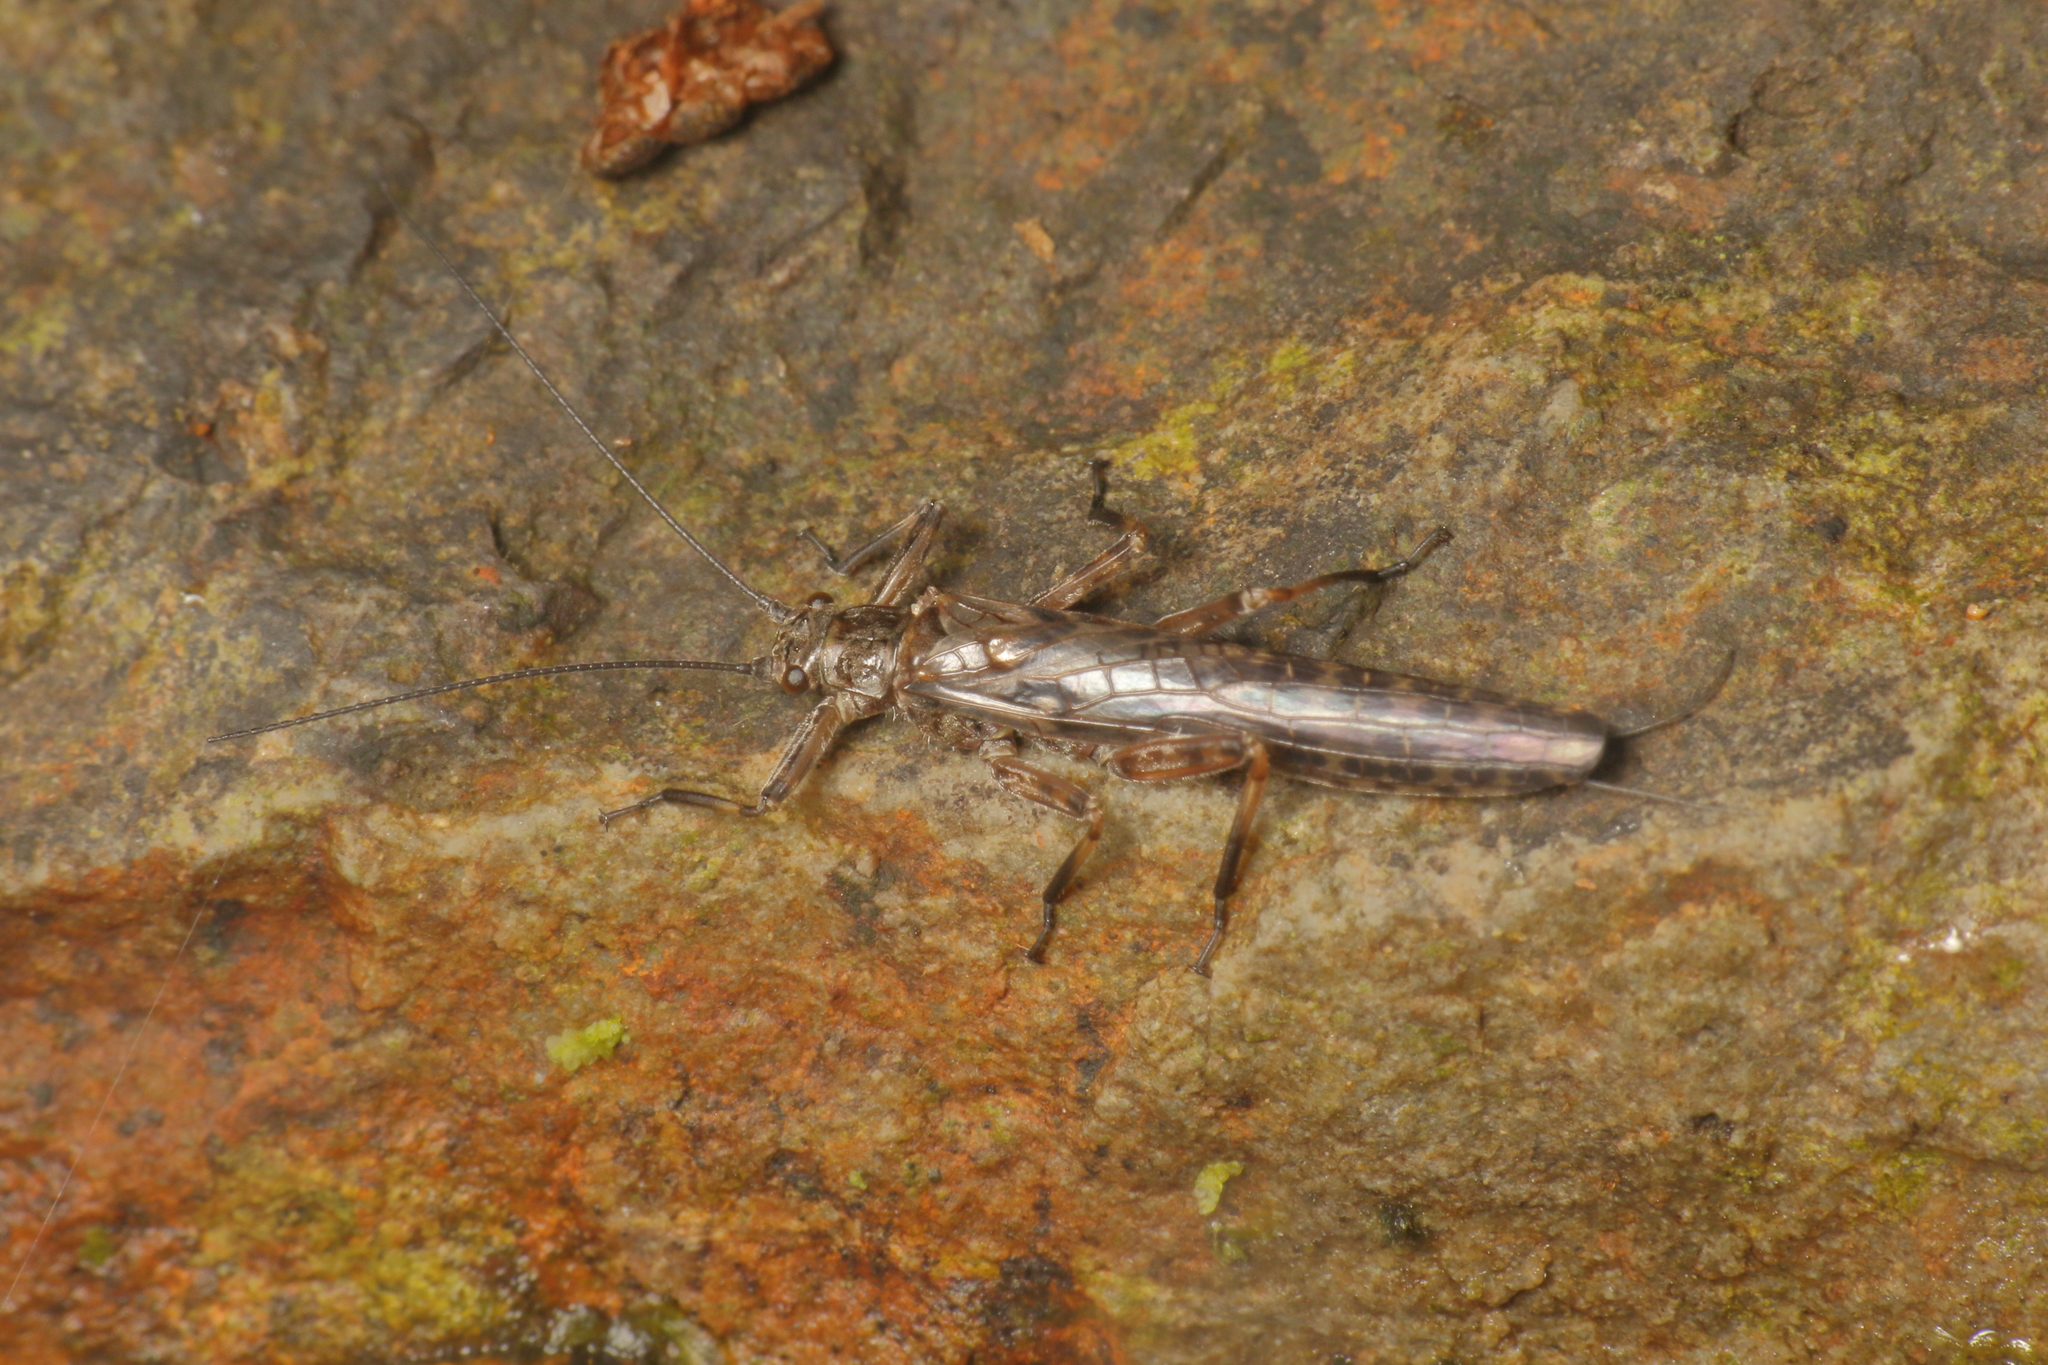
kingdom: Animalia
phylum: Arthropoda
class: Insecta
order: Plecoptera
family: Gripopterygidae
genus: Zelandoperla
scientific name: Zelandoperla agnetis
